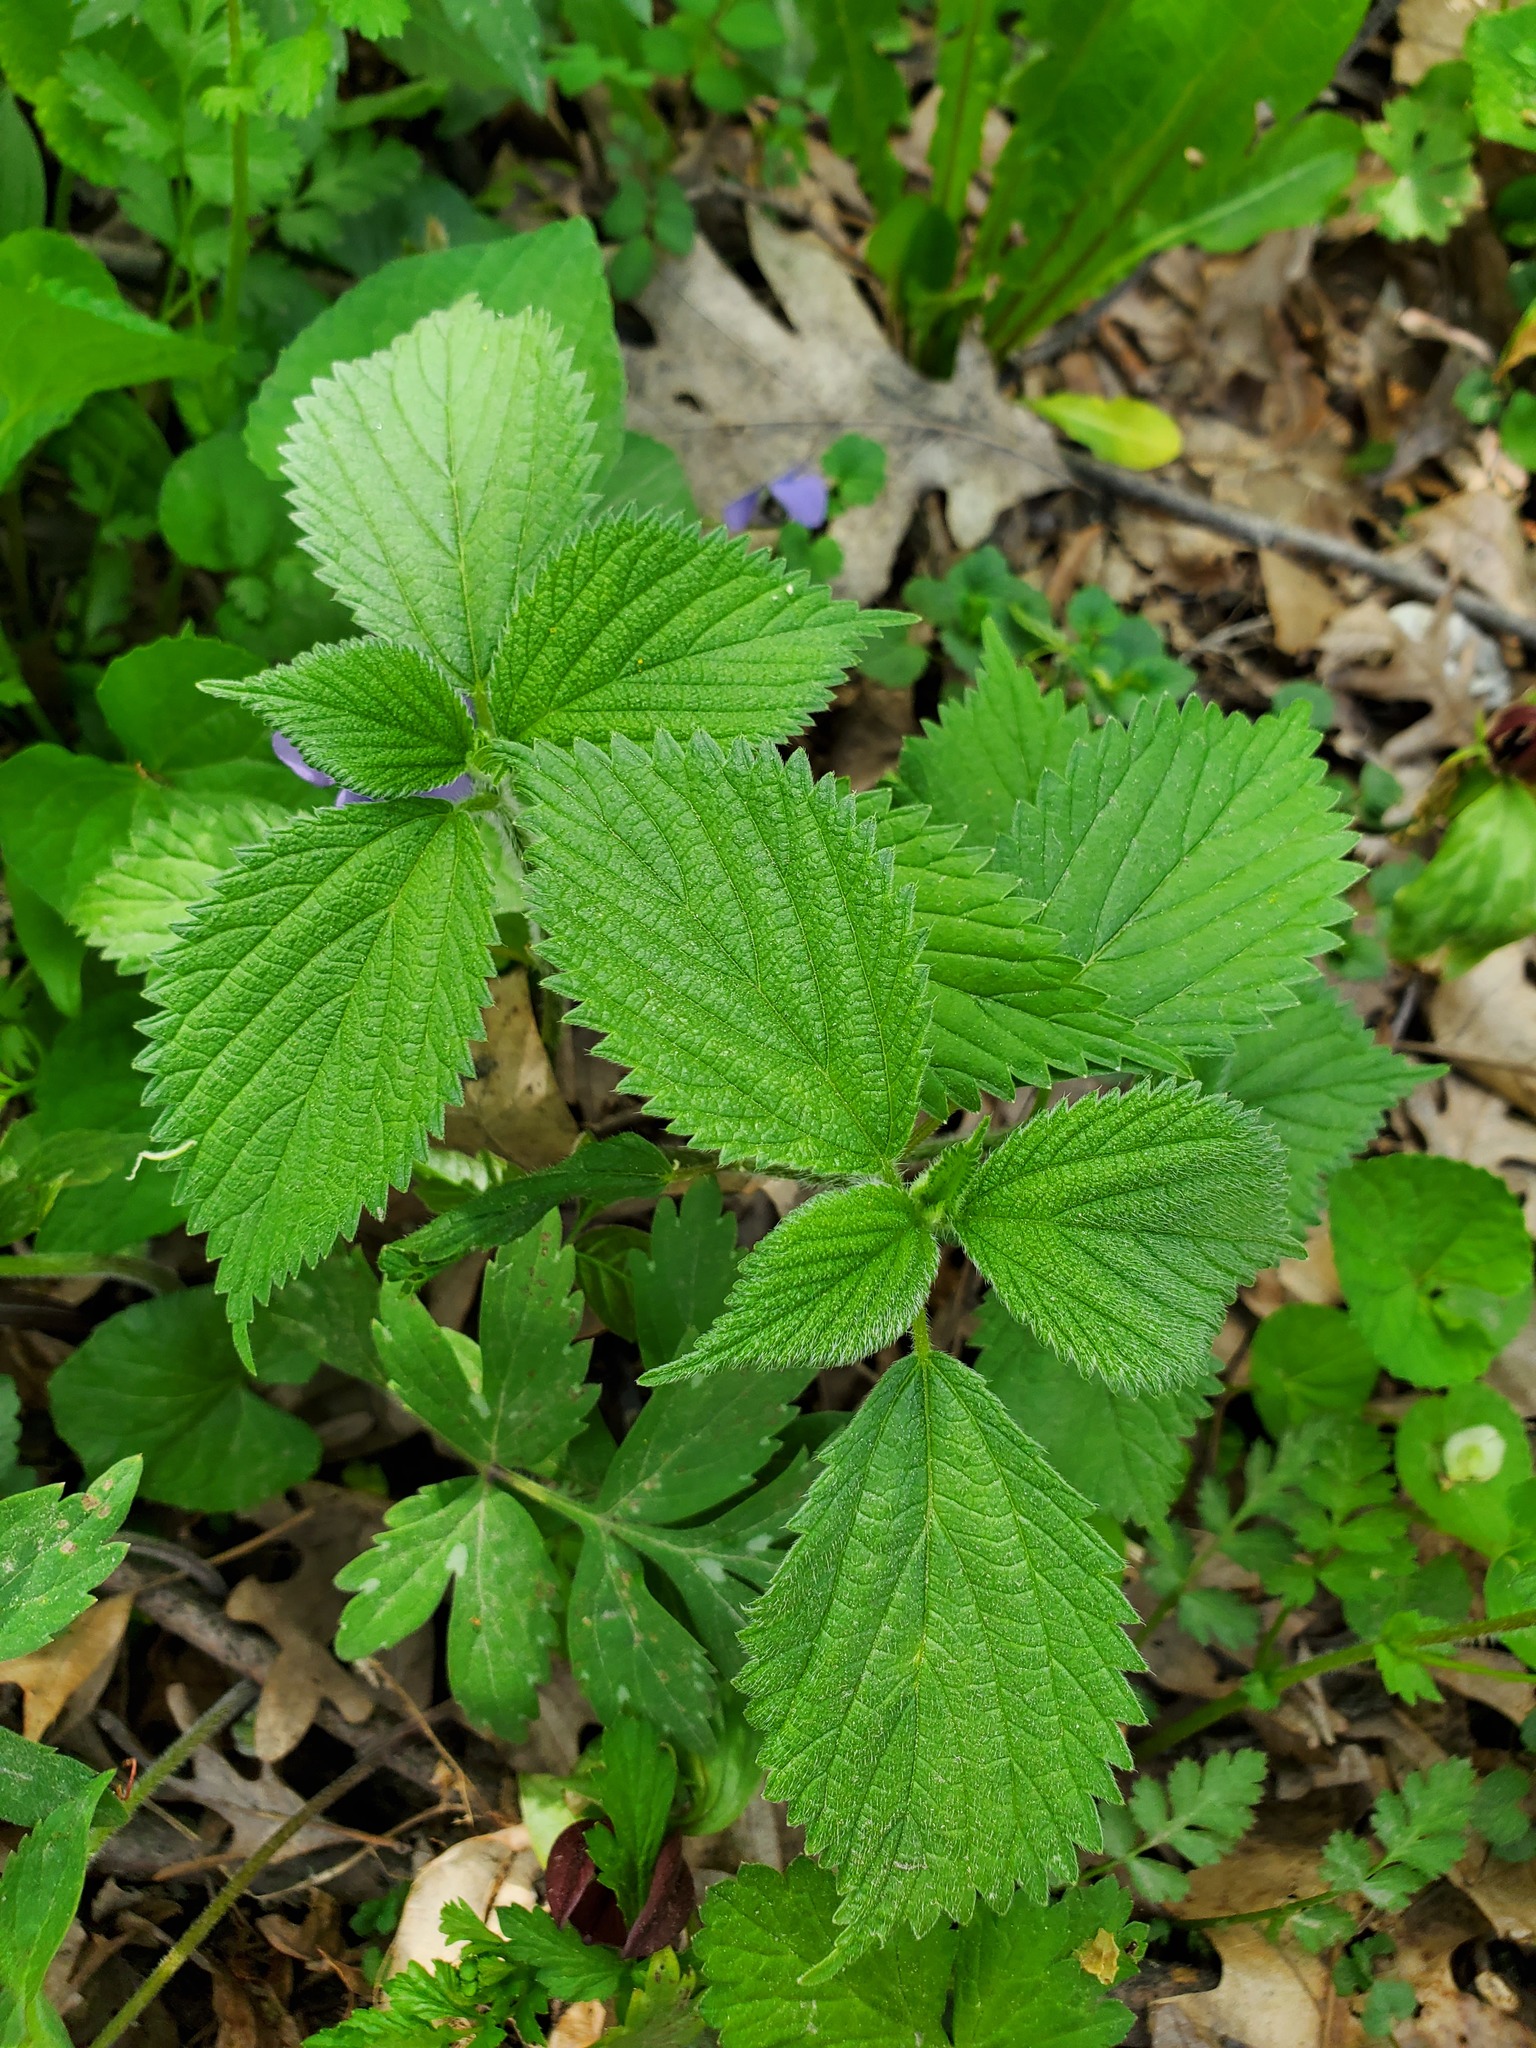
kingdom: Plantae
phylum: Tracheophyta
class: Magnoliopsida
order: Rosales
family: Urticaceae
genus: Urtica
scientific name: Urtica dioica
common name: Common nettle
